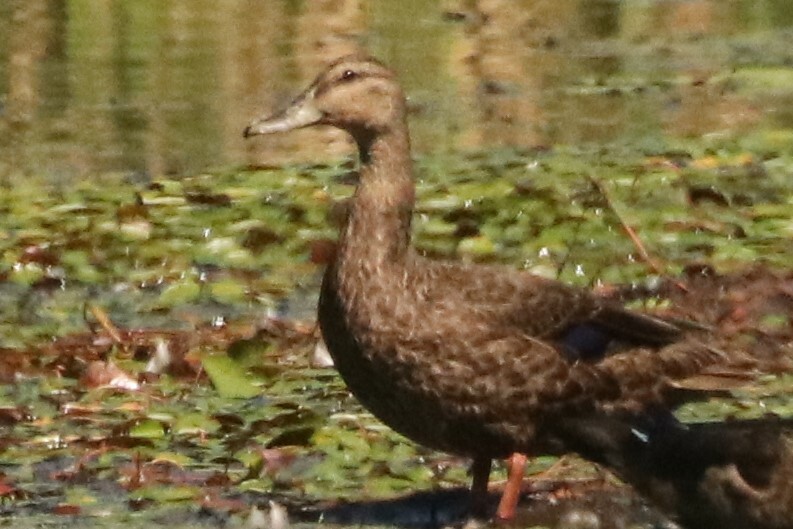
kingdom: Animalia
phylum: Chordata
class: Aves
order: Anseriformes
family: Anatidae
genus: Anas
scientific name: Anas rubripes
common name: American black duck
